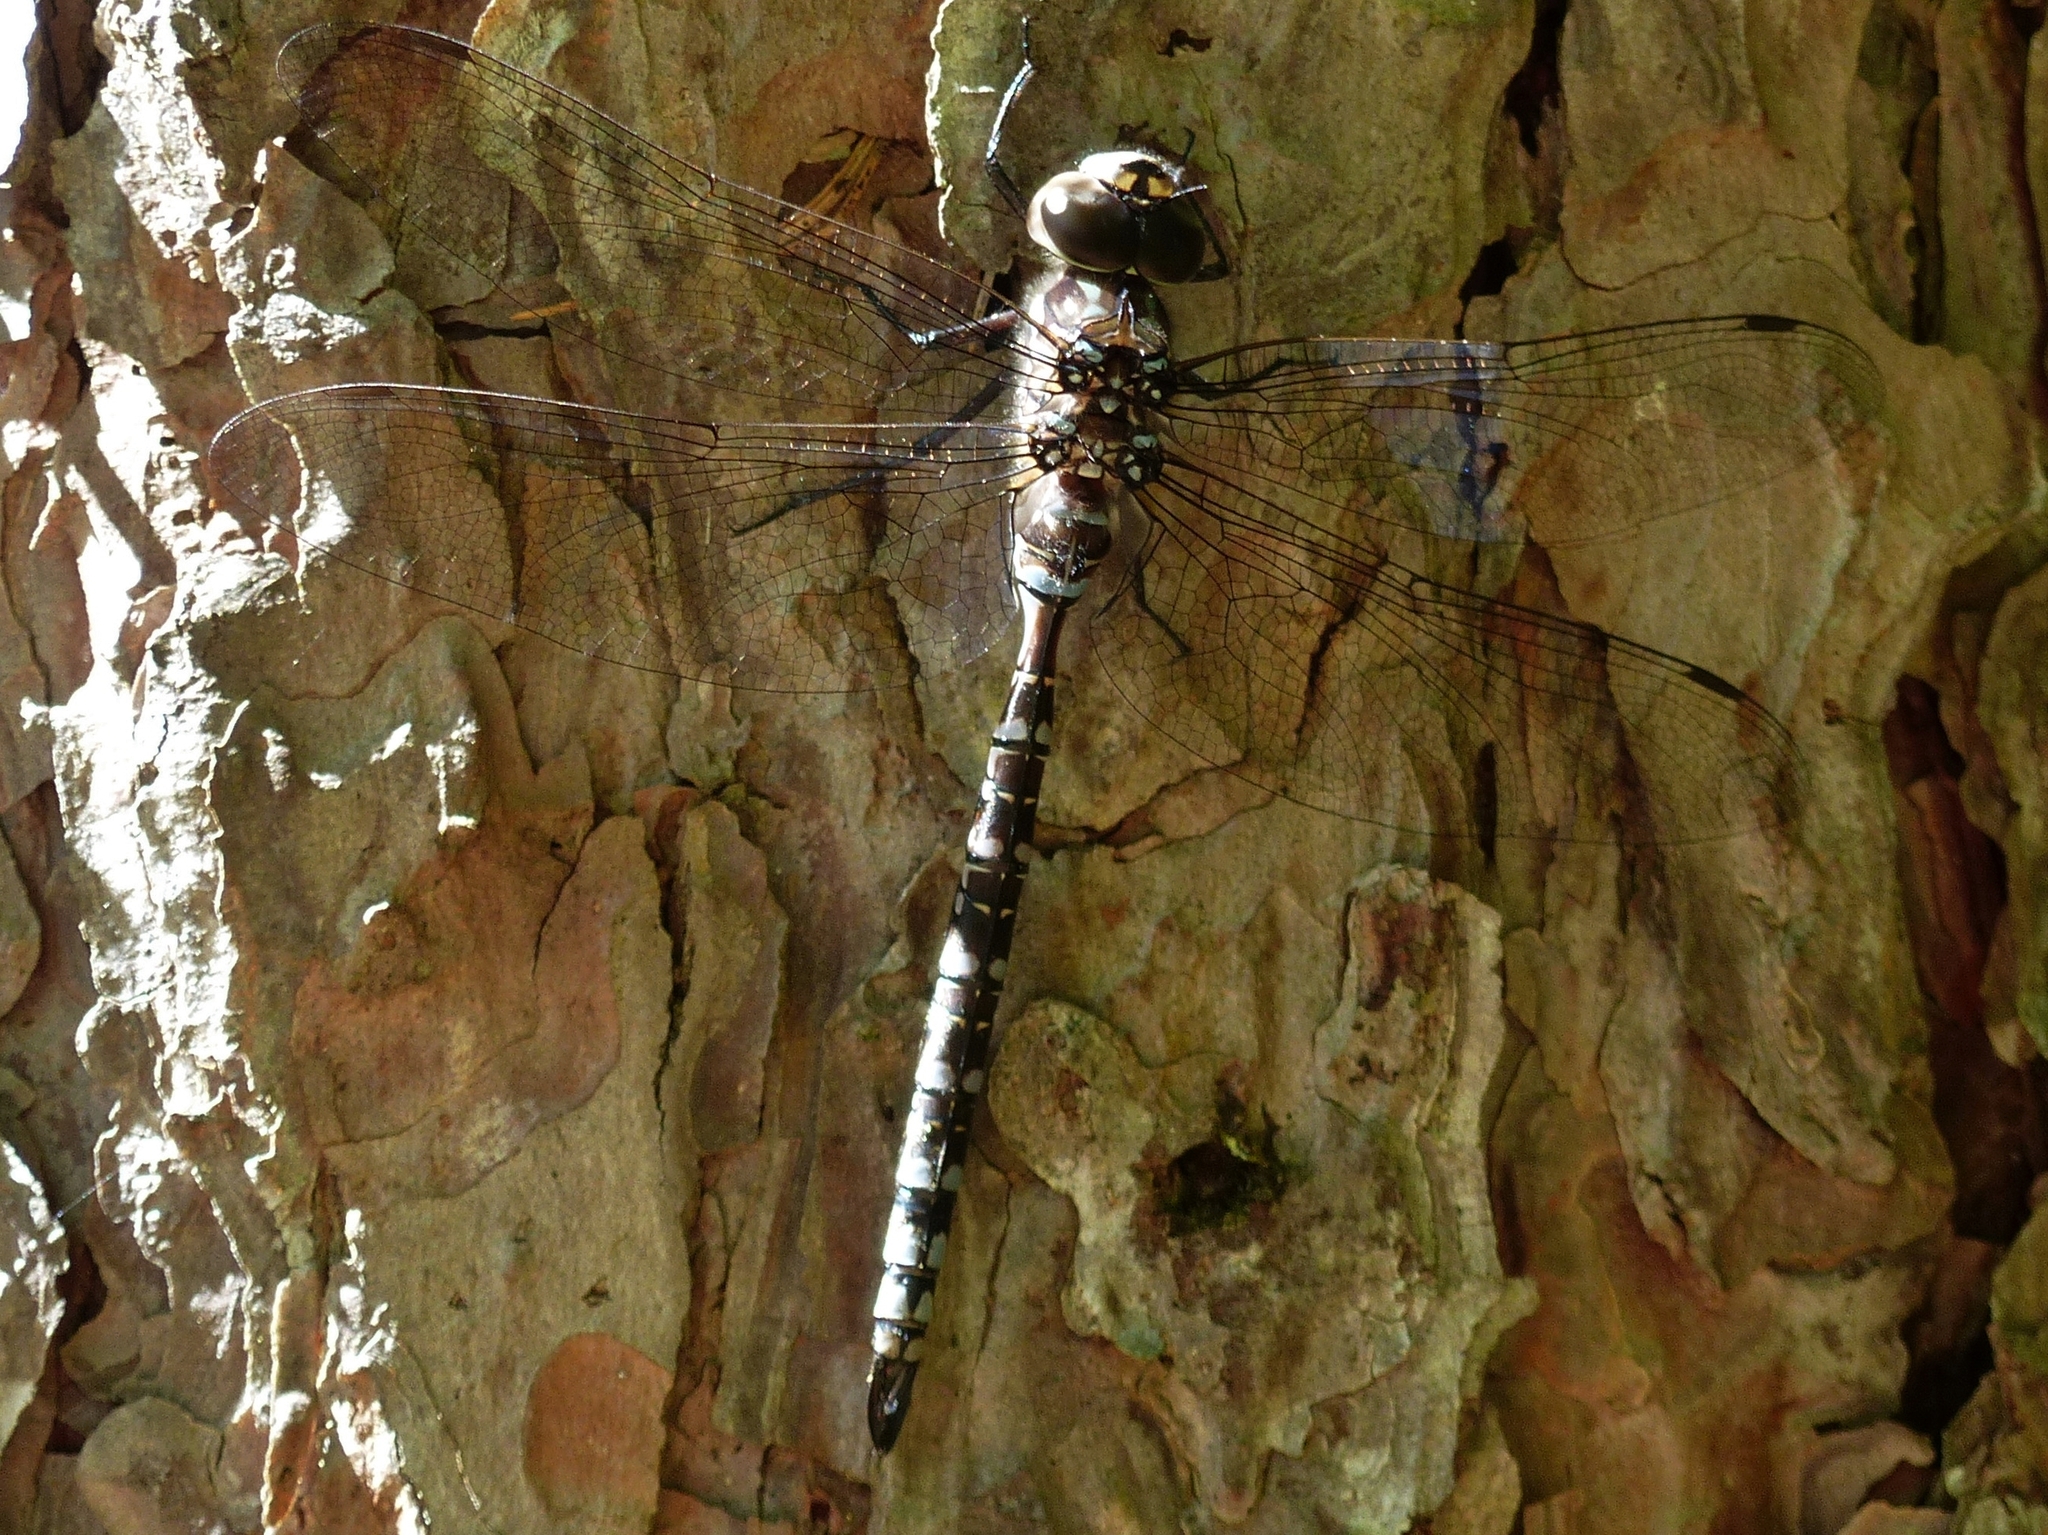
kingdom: Animalia
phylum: Arthropoda
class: Insecta
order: Odonata
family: Aeshnidae
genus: Aeshna
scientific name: Aeshna canadensis
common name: Canada darner
